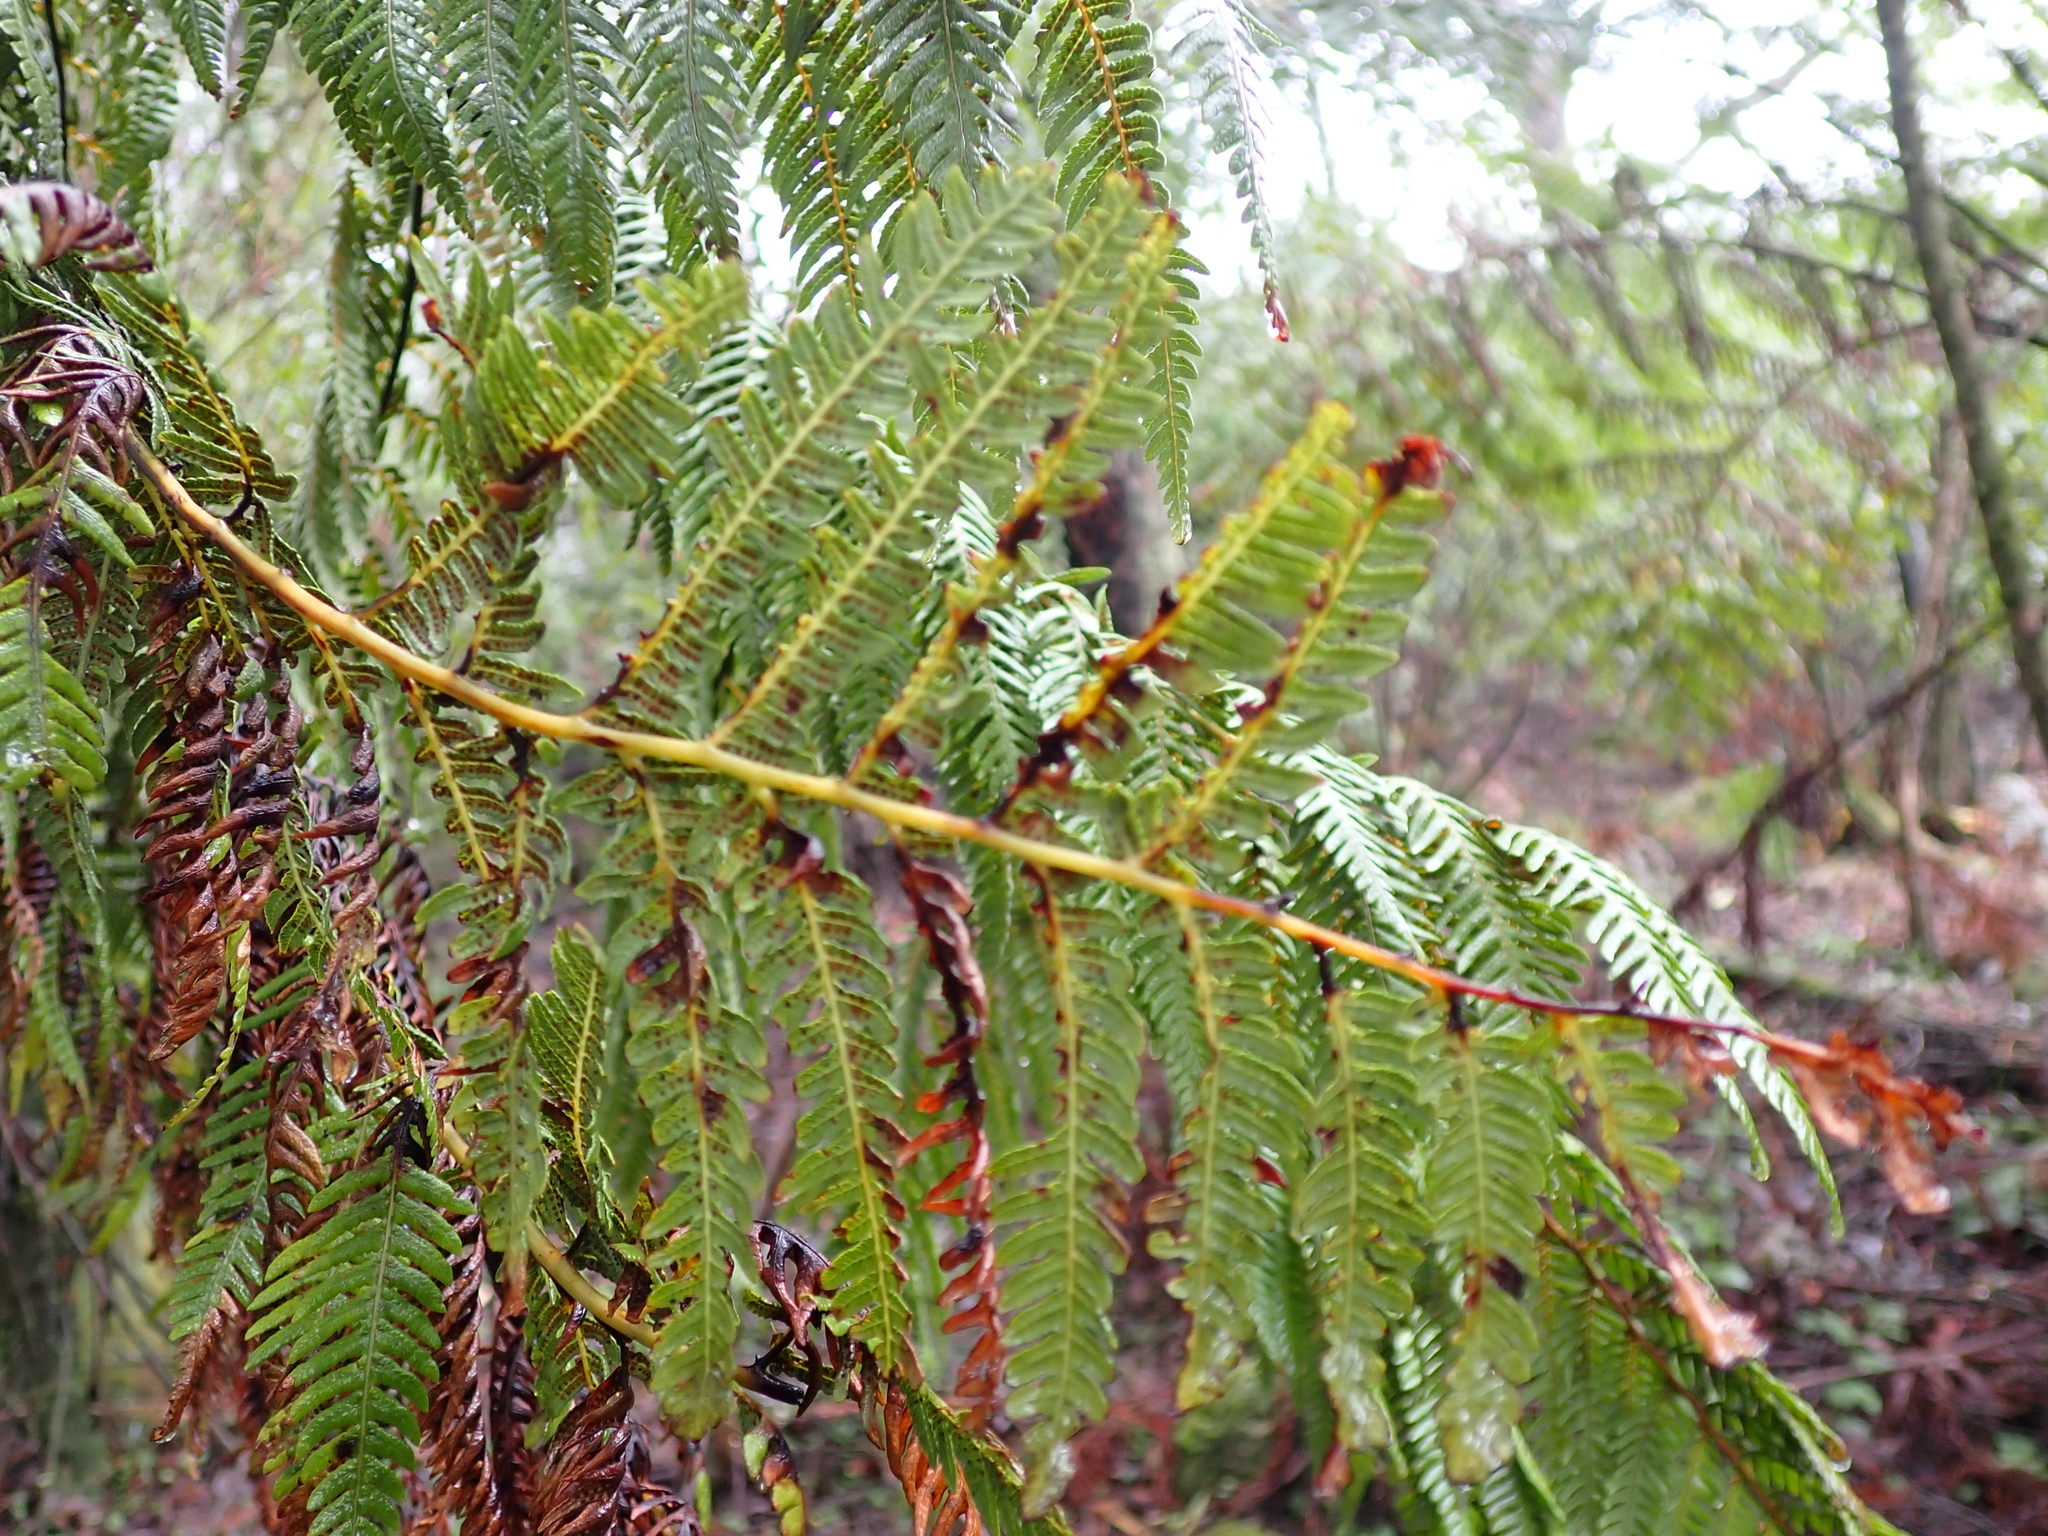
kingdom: Plantae
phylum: Tracheophyta
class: Polypodiopsida
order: Cyatheales
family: Cyatheaceae
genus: Alsophila
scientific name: Alsophila australis
